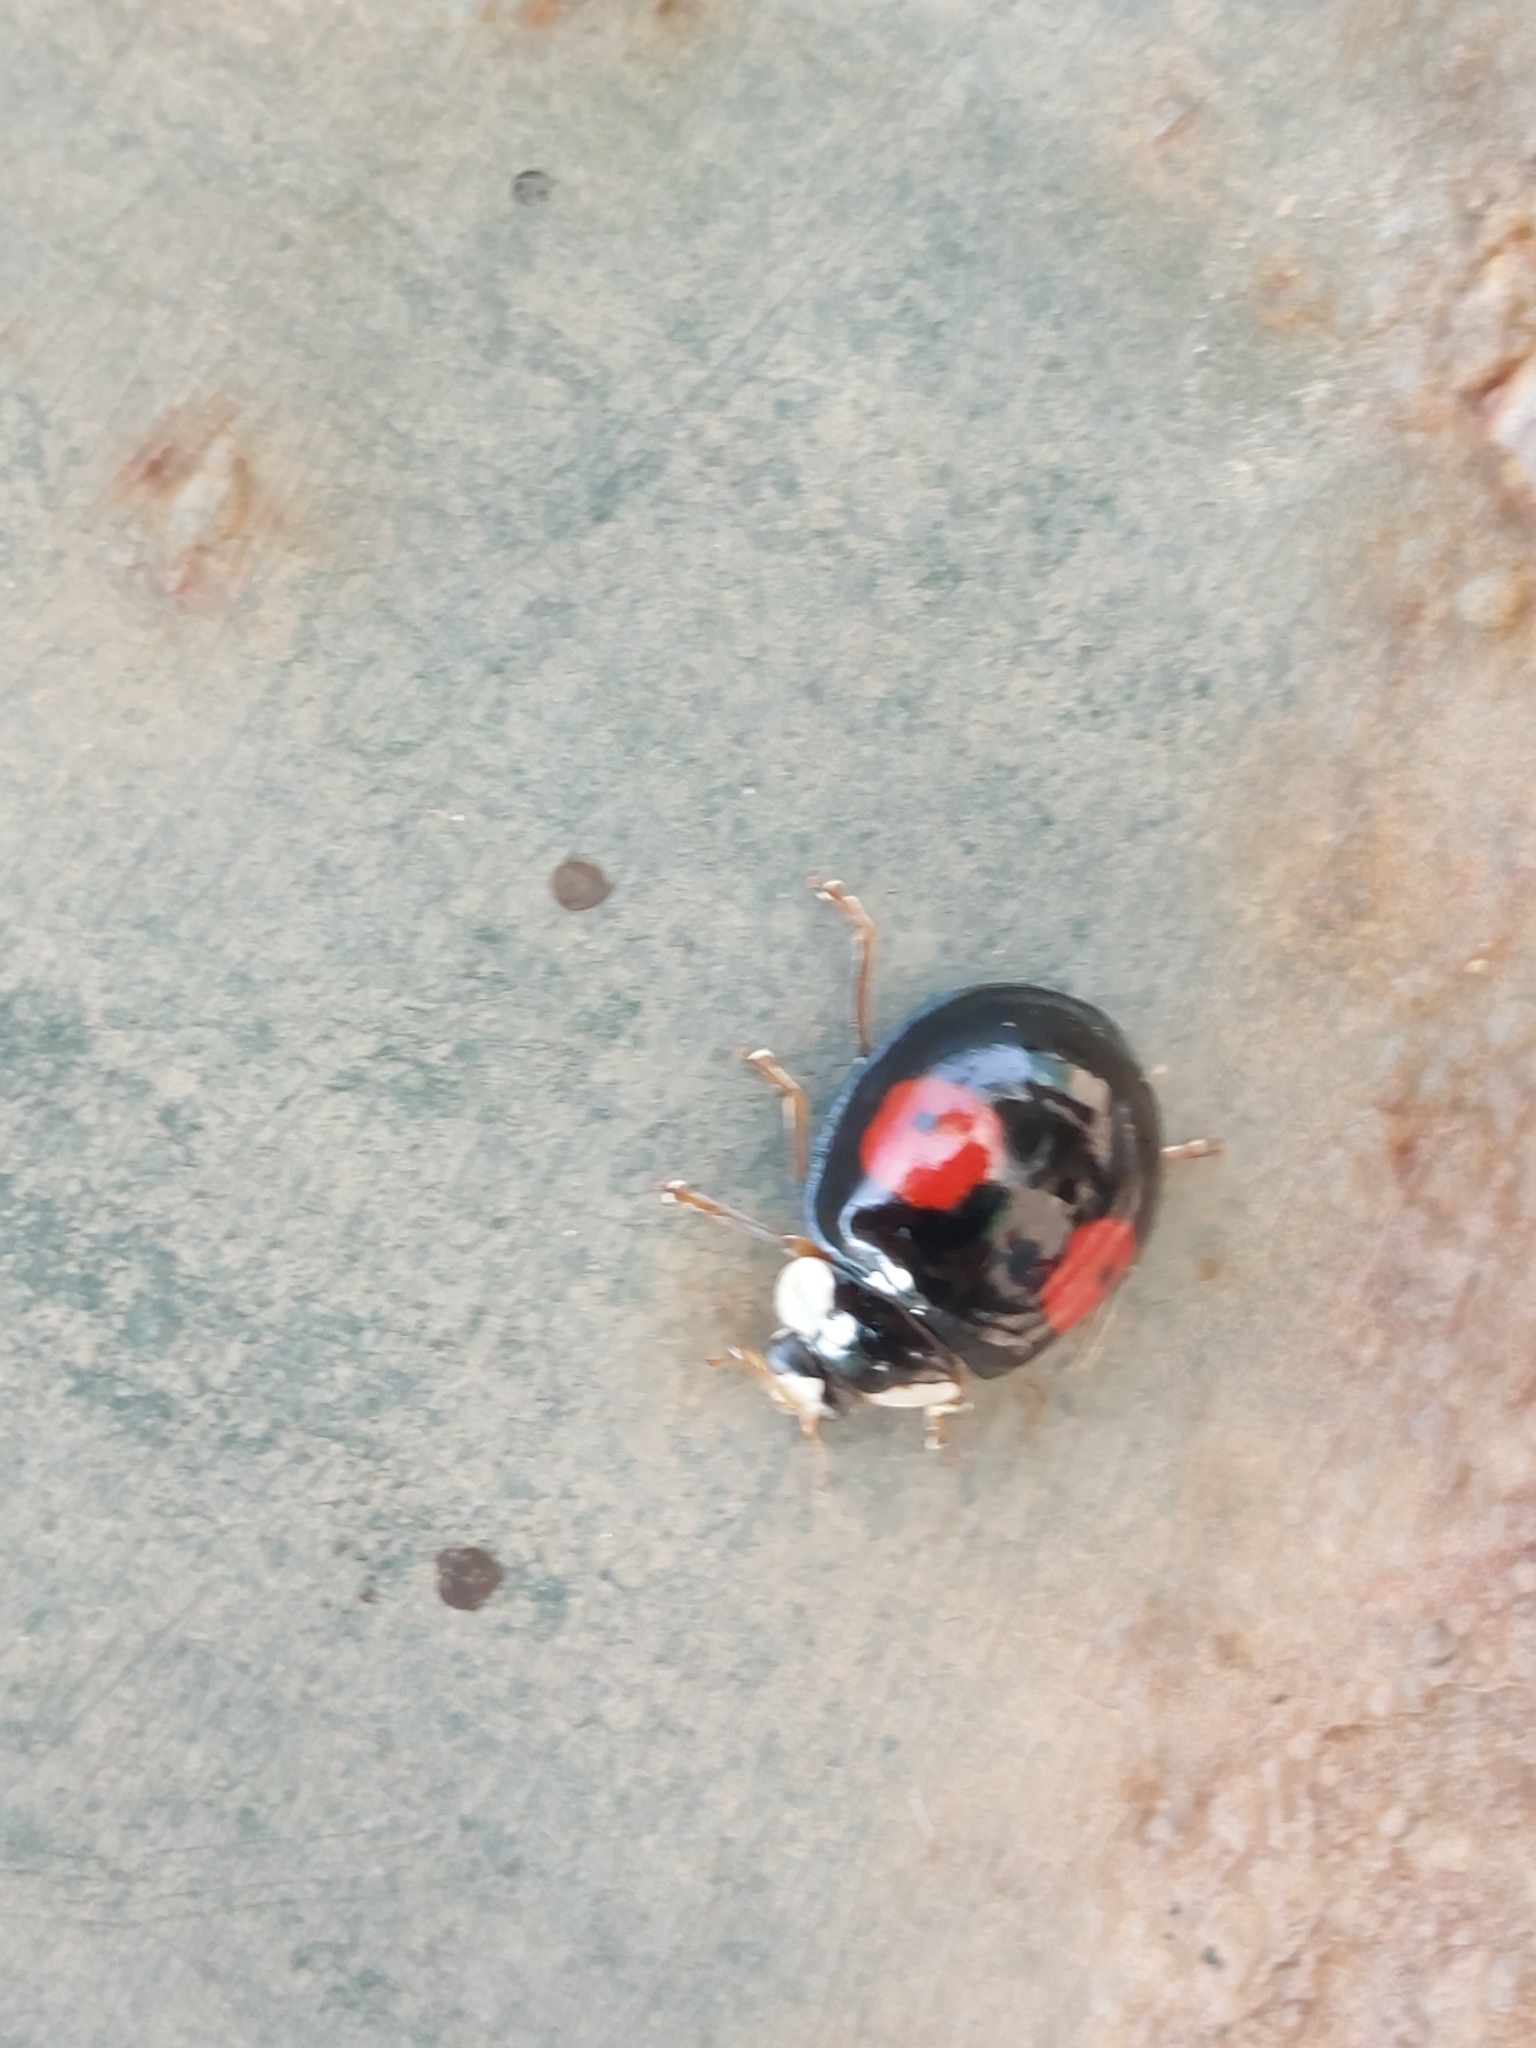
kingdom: Animalia
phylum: Arthropoda
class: Insecta
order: Coleoptera
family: Coccinellidae
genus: Harmonia
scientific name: Harmonia axyridis
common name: Harlequin ladybird
